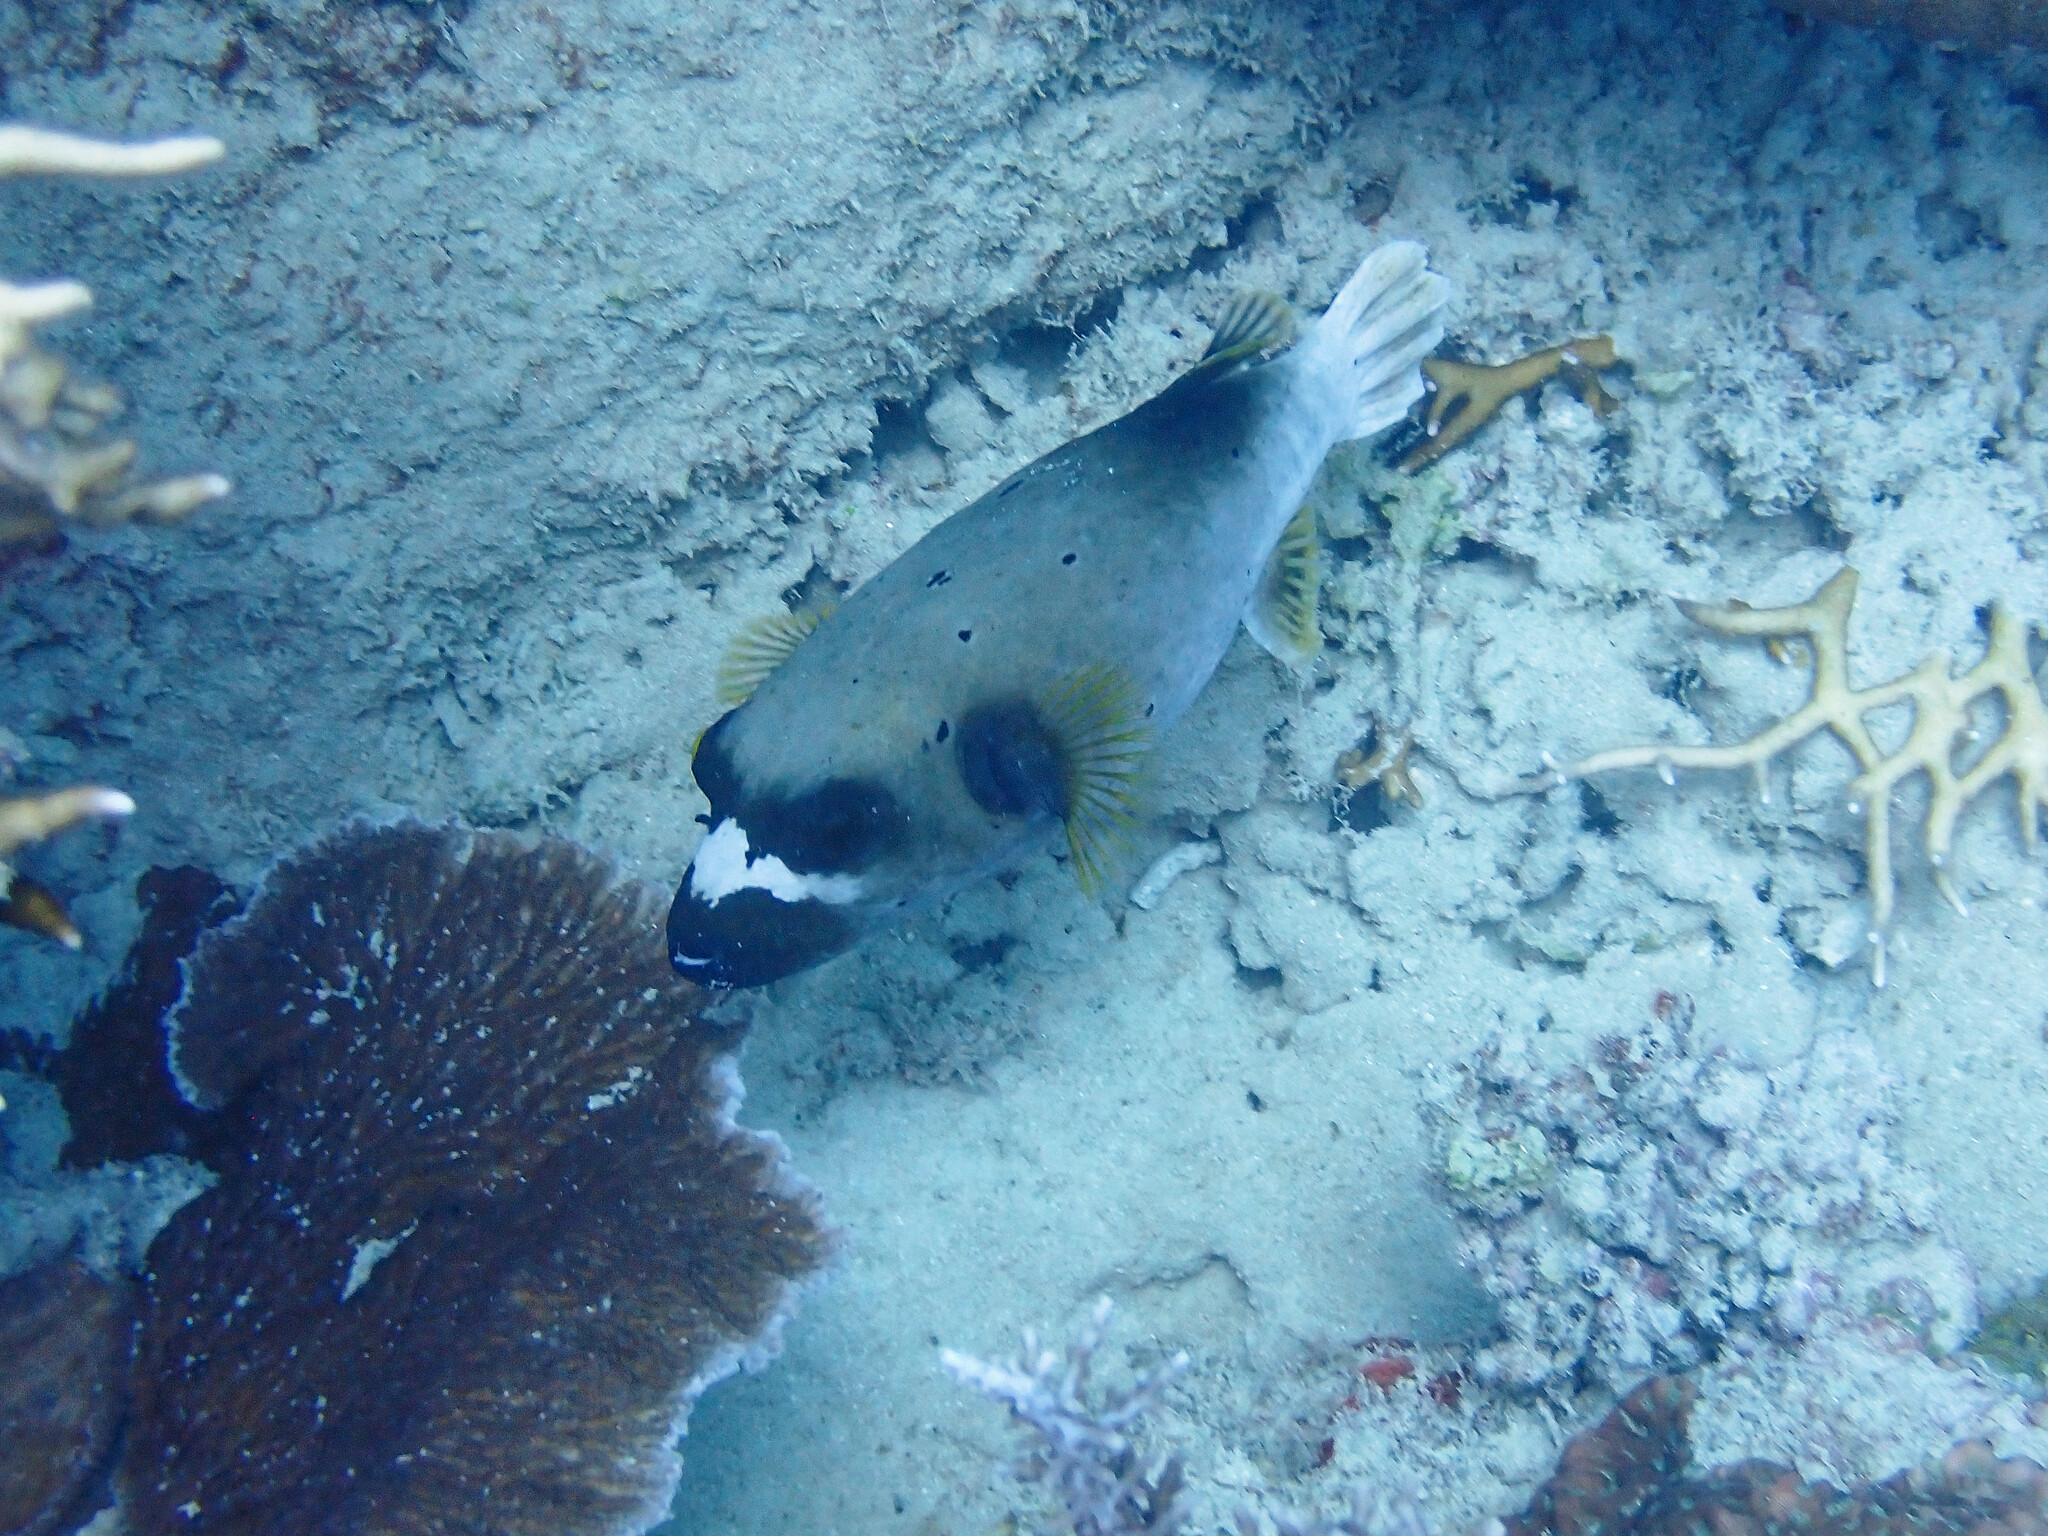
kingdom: Animalia
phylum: Chordata
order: Tetraodontiformes
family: Tetraodontidae
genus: Arothron
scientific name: Arothron nigropunctatus
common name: Black spotted blow fish
